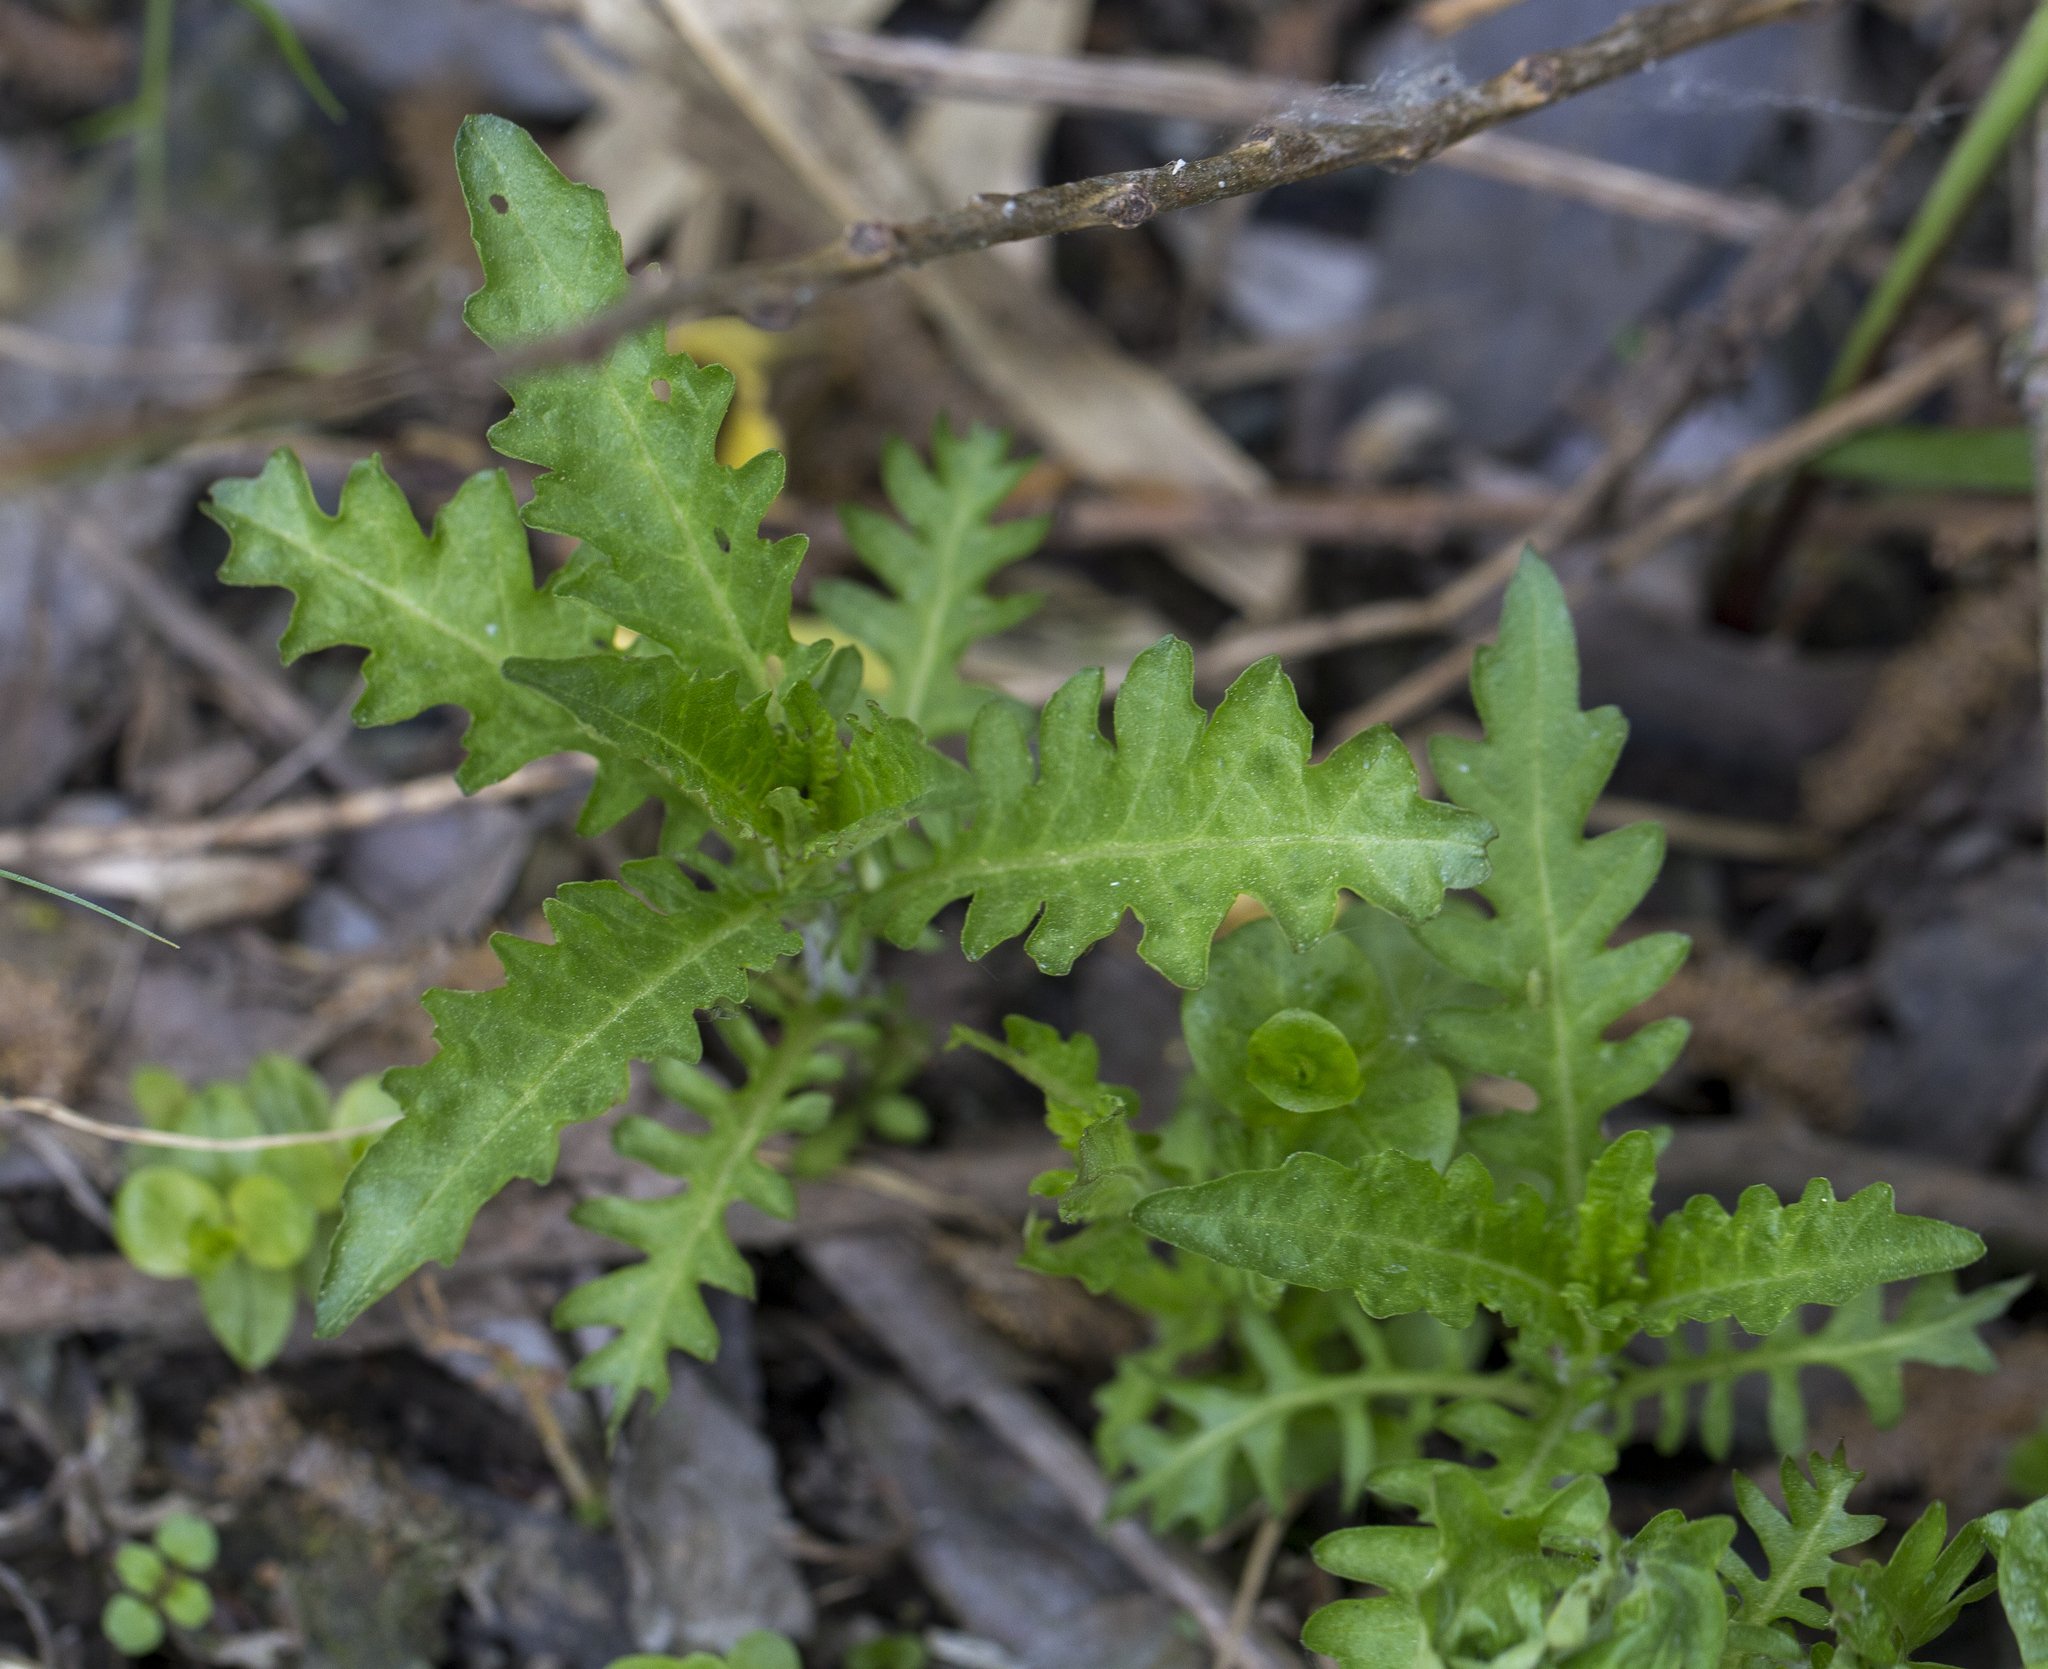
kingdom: Plantae
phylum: Tracheophyta
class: Magnoliopsida
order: Lamiales
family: Lamiaceae
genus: Lycopus
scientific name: Lycopus europaeus
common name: European bugleweed
